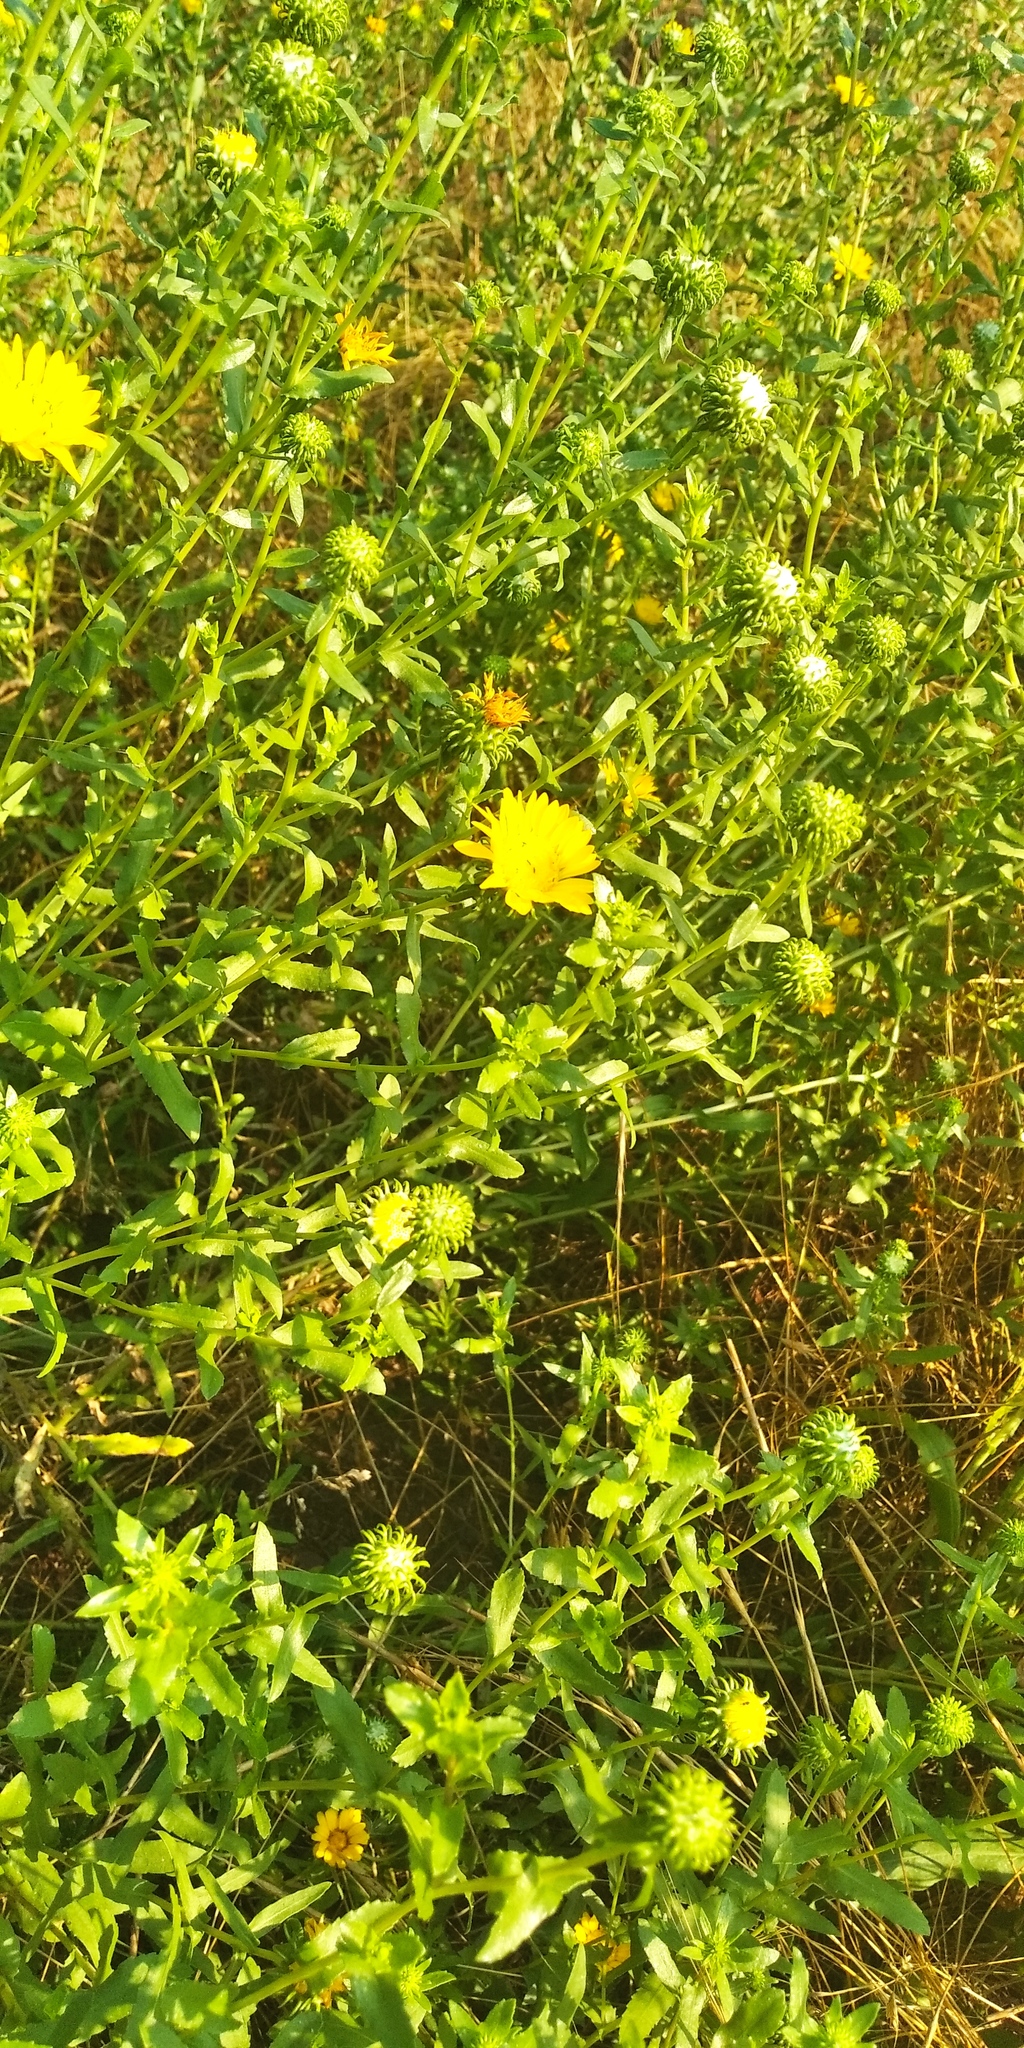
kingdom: Plantae
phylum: Tracheophyta
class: Magnoliopsida
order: Asterales
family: Asteraceae
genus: Grindelia
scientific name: Grindelia squarrosa
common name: Curly-cup gumweed
